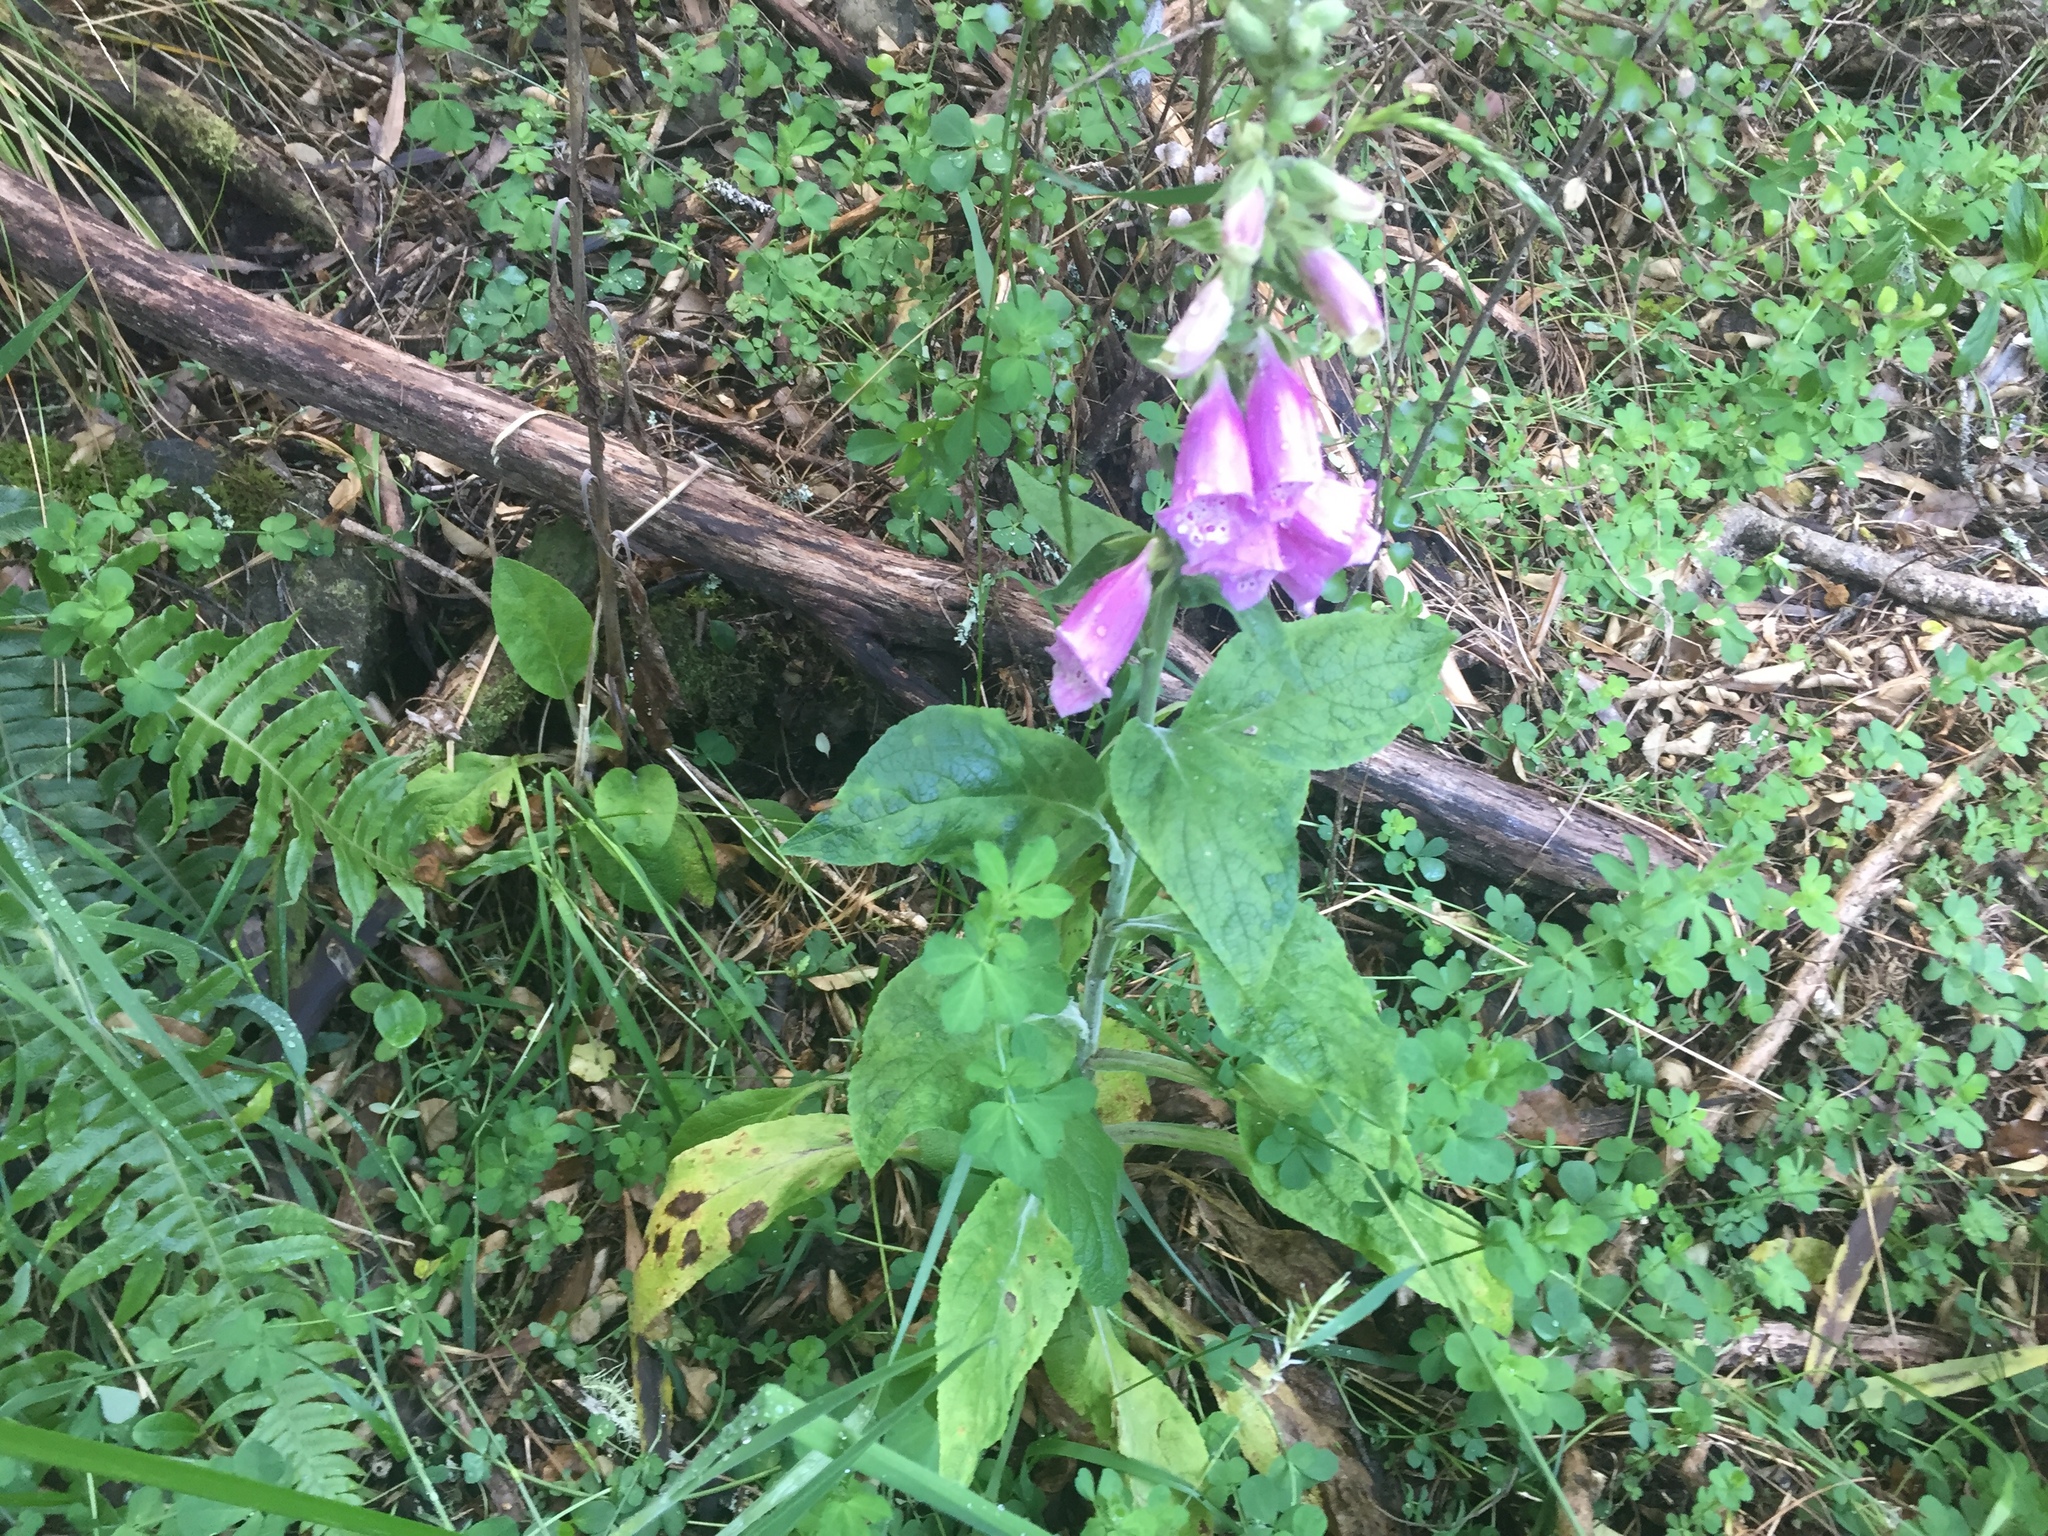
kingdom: Plantae
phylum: Tracheophyta
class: Magnoliopsida
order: Lamiales
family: Plantaginaceae
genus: Digitalis
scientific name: Digitalis purpurea
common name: Foxglove
